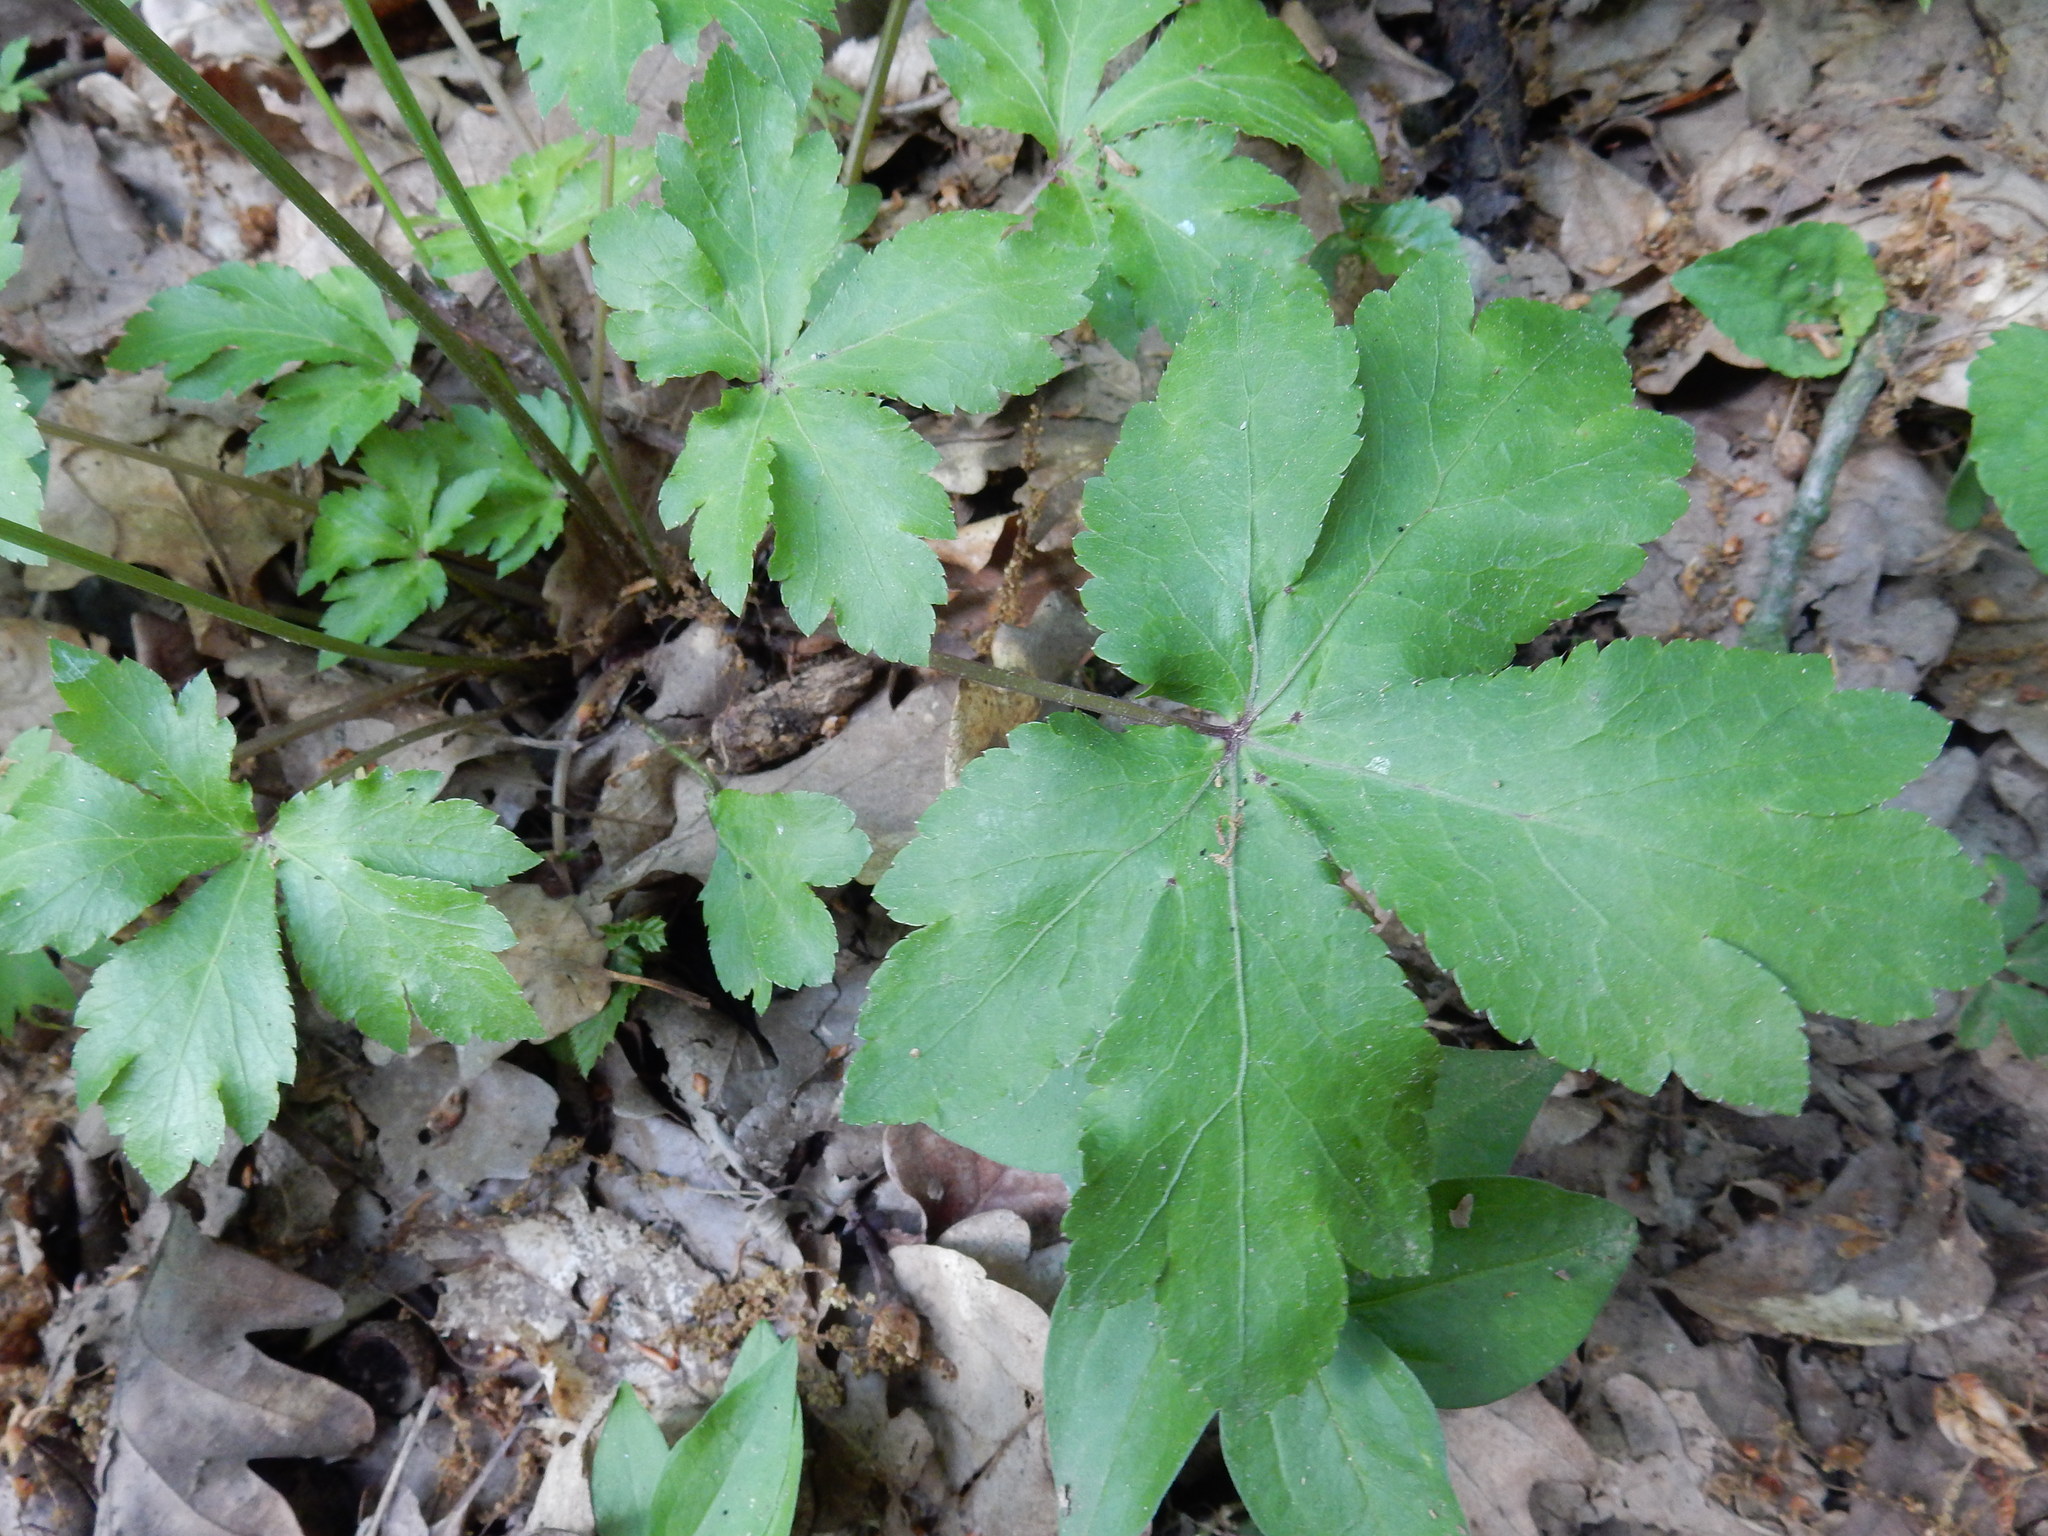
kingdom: Plantae
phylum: Tracheophyta
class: Magnoliopsida
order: Apiales
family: Apiaceae
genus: Sanicula
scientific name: Sanicula europaea
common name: Sanicle
